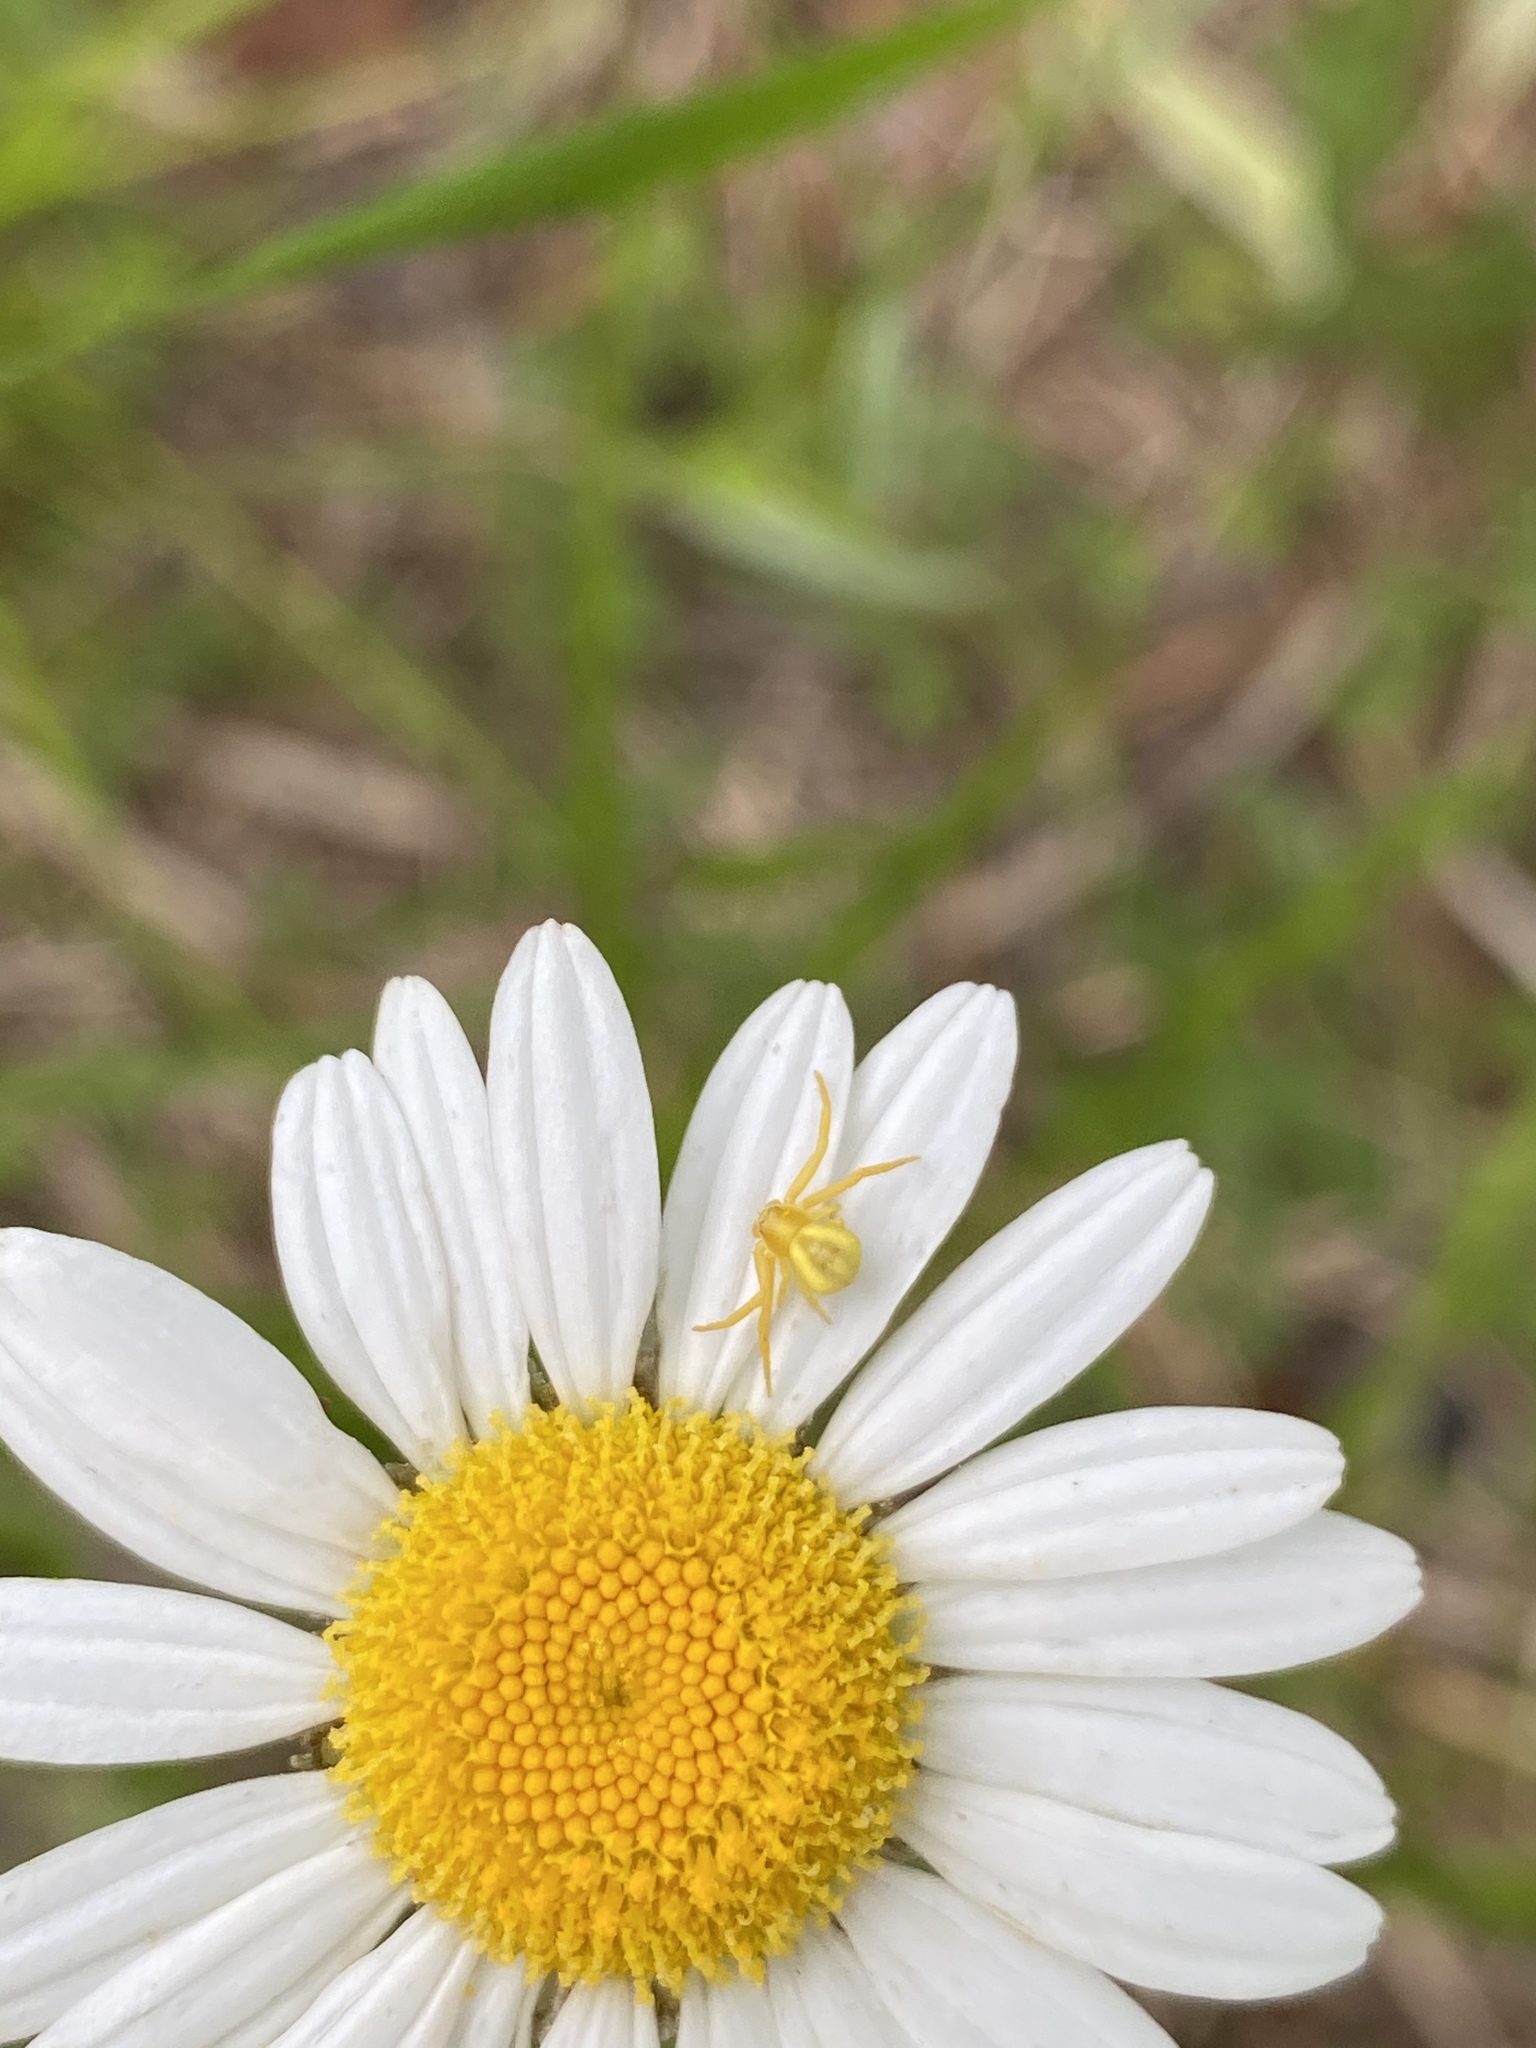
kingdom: Animalia
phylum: Arthropoda
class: Arachnida
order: Araneae
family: Thomisidae
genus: Misumenoides
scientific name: Misumenoides formosipes
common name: White-banded crab spider
